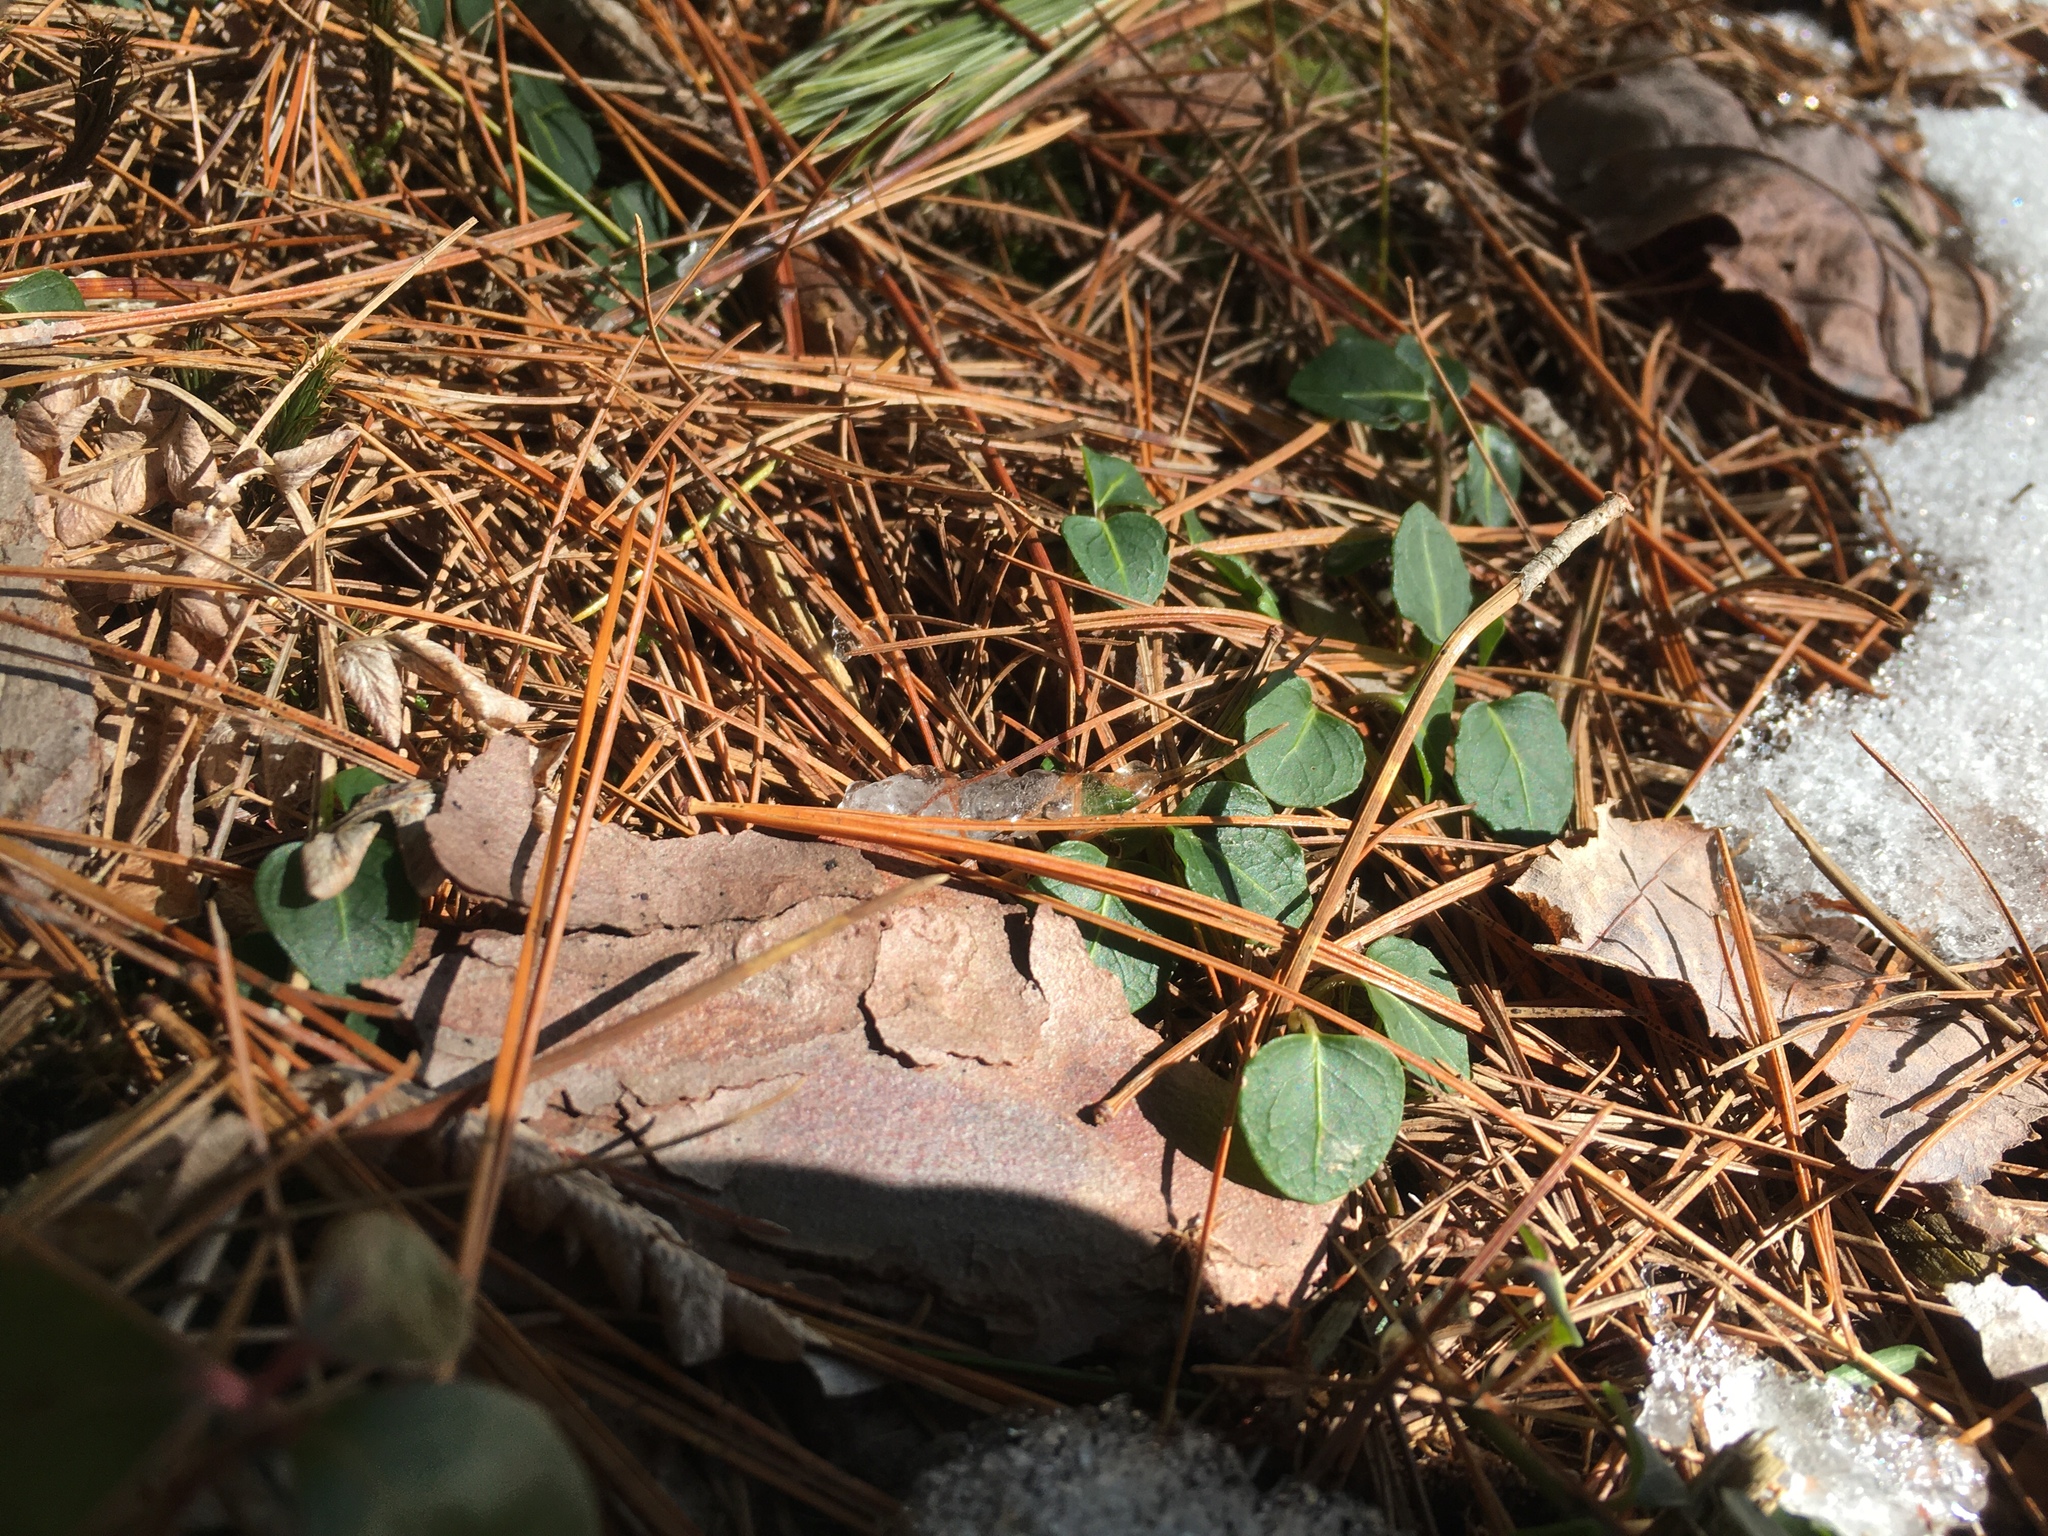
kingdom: Plantae
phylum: Tracheophyta
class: Magnoliopsida
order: Gentianales
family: Rubiaceae
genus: Mitchella
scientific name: Mitchella repens
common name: Partridge-berry
